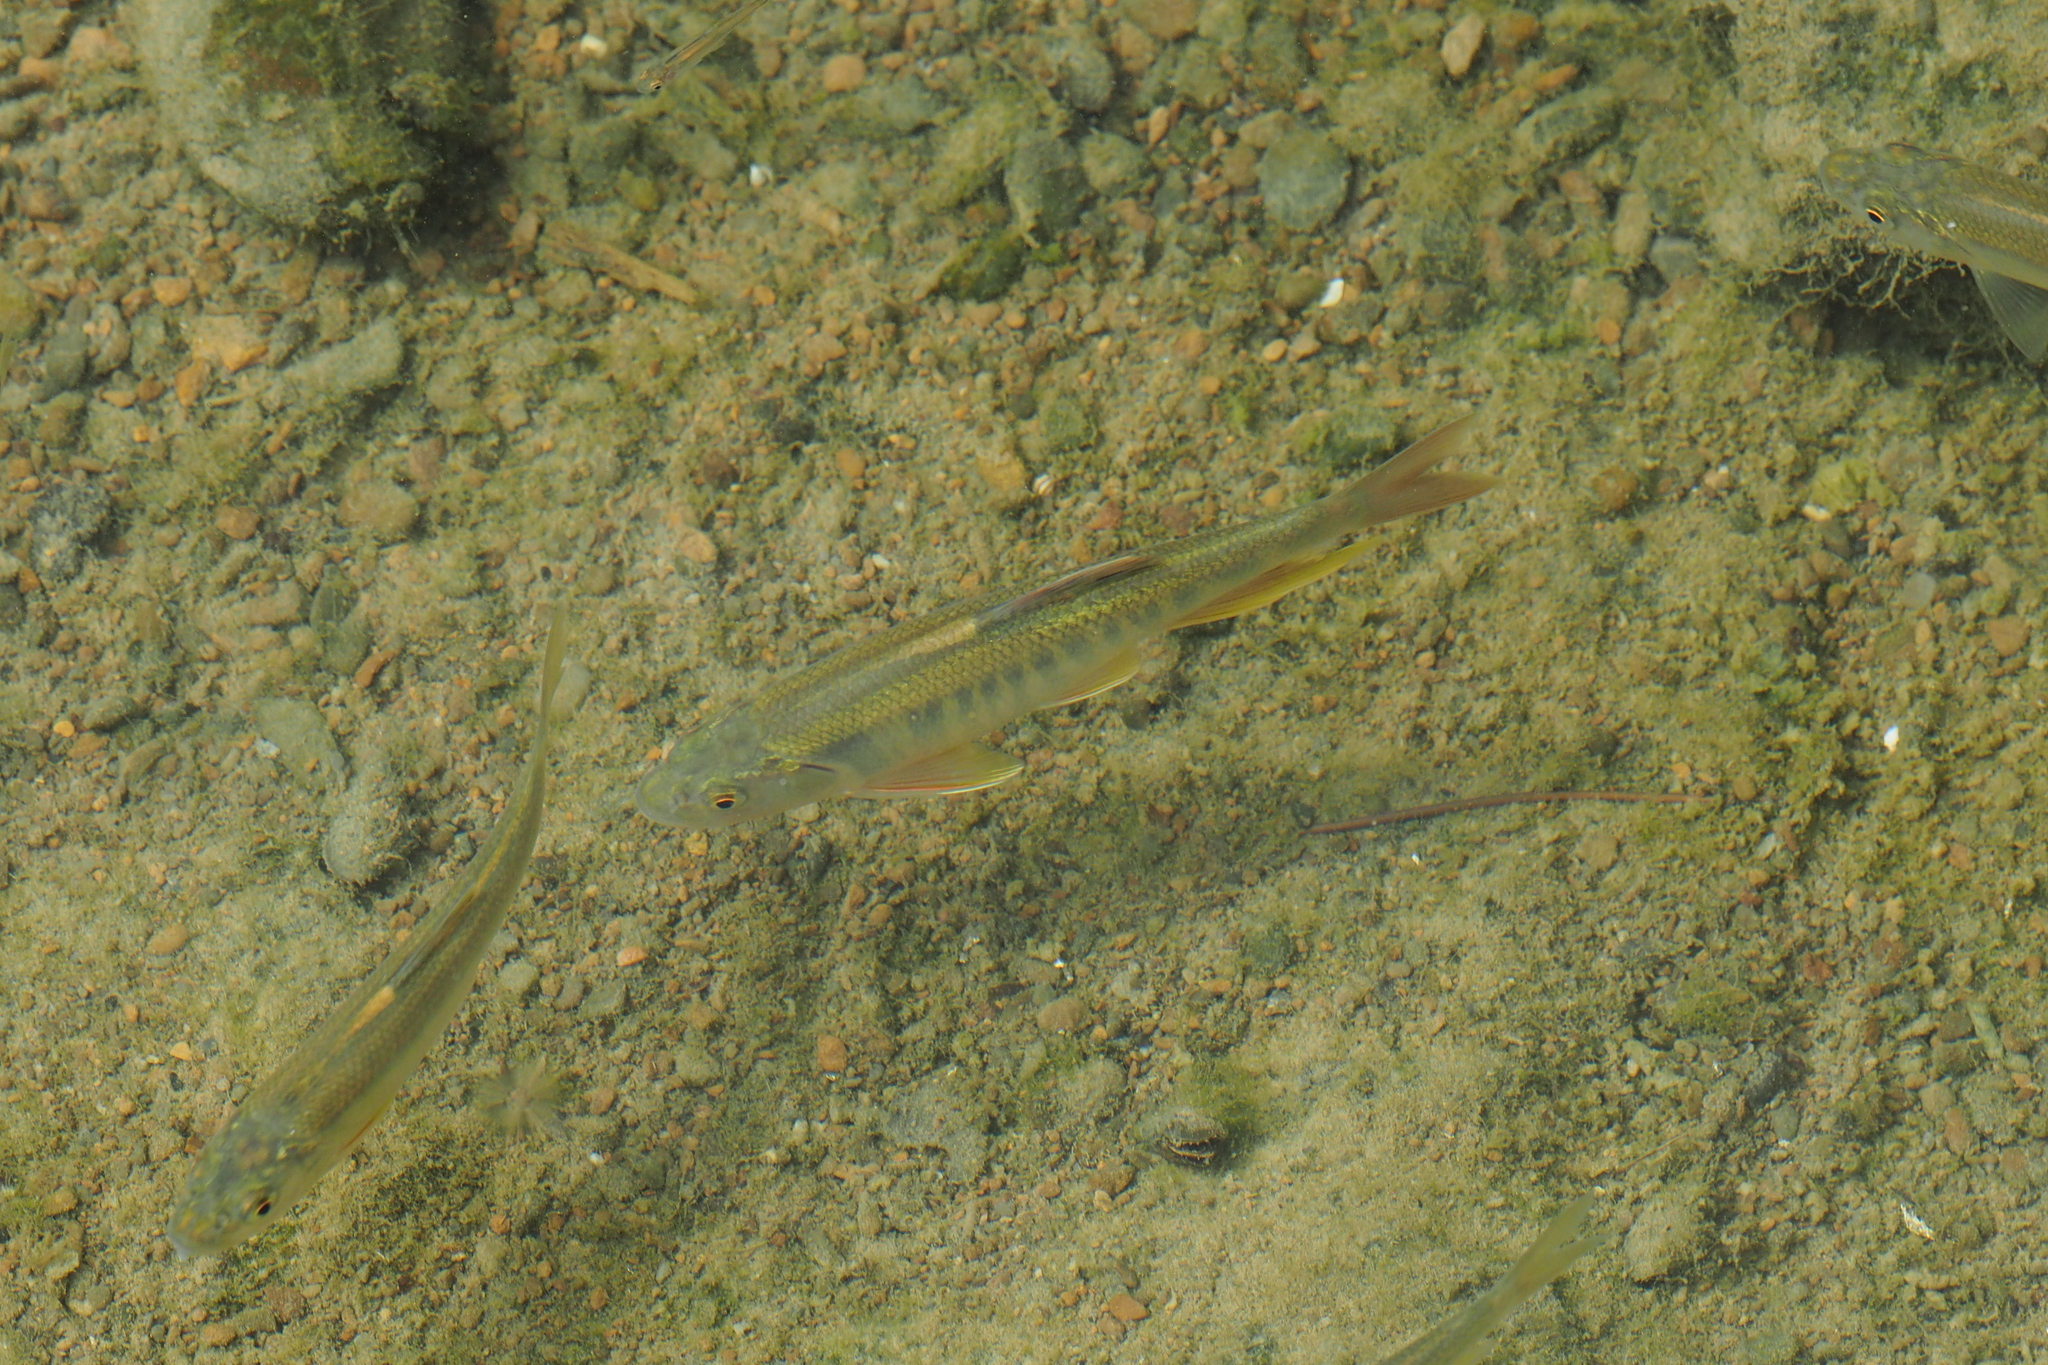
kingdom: Animalia
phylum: Chordata
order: Cypriniformes
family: Cyprinidae
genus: Opsariichthys
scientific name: Opsariichthys pachycephalus
